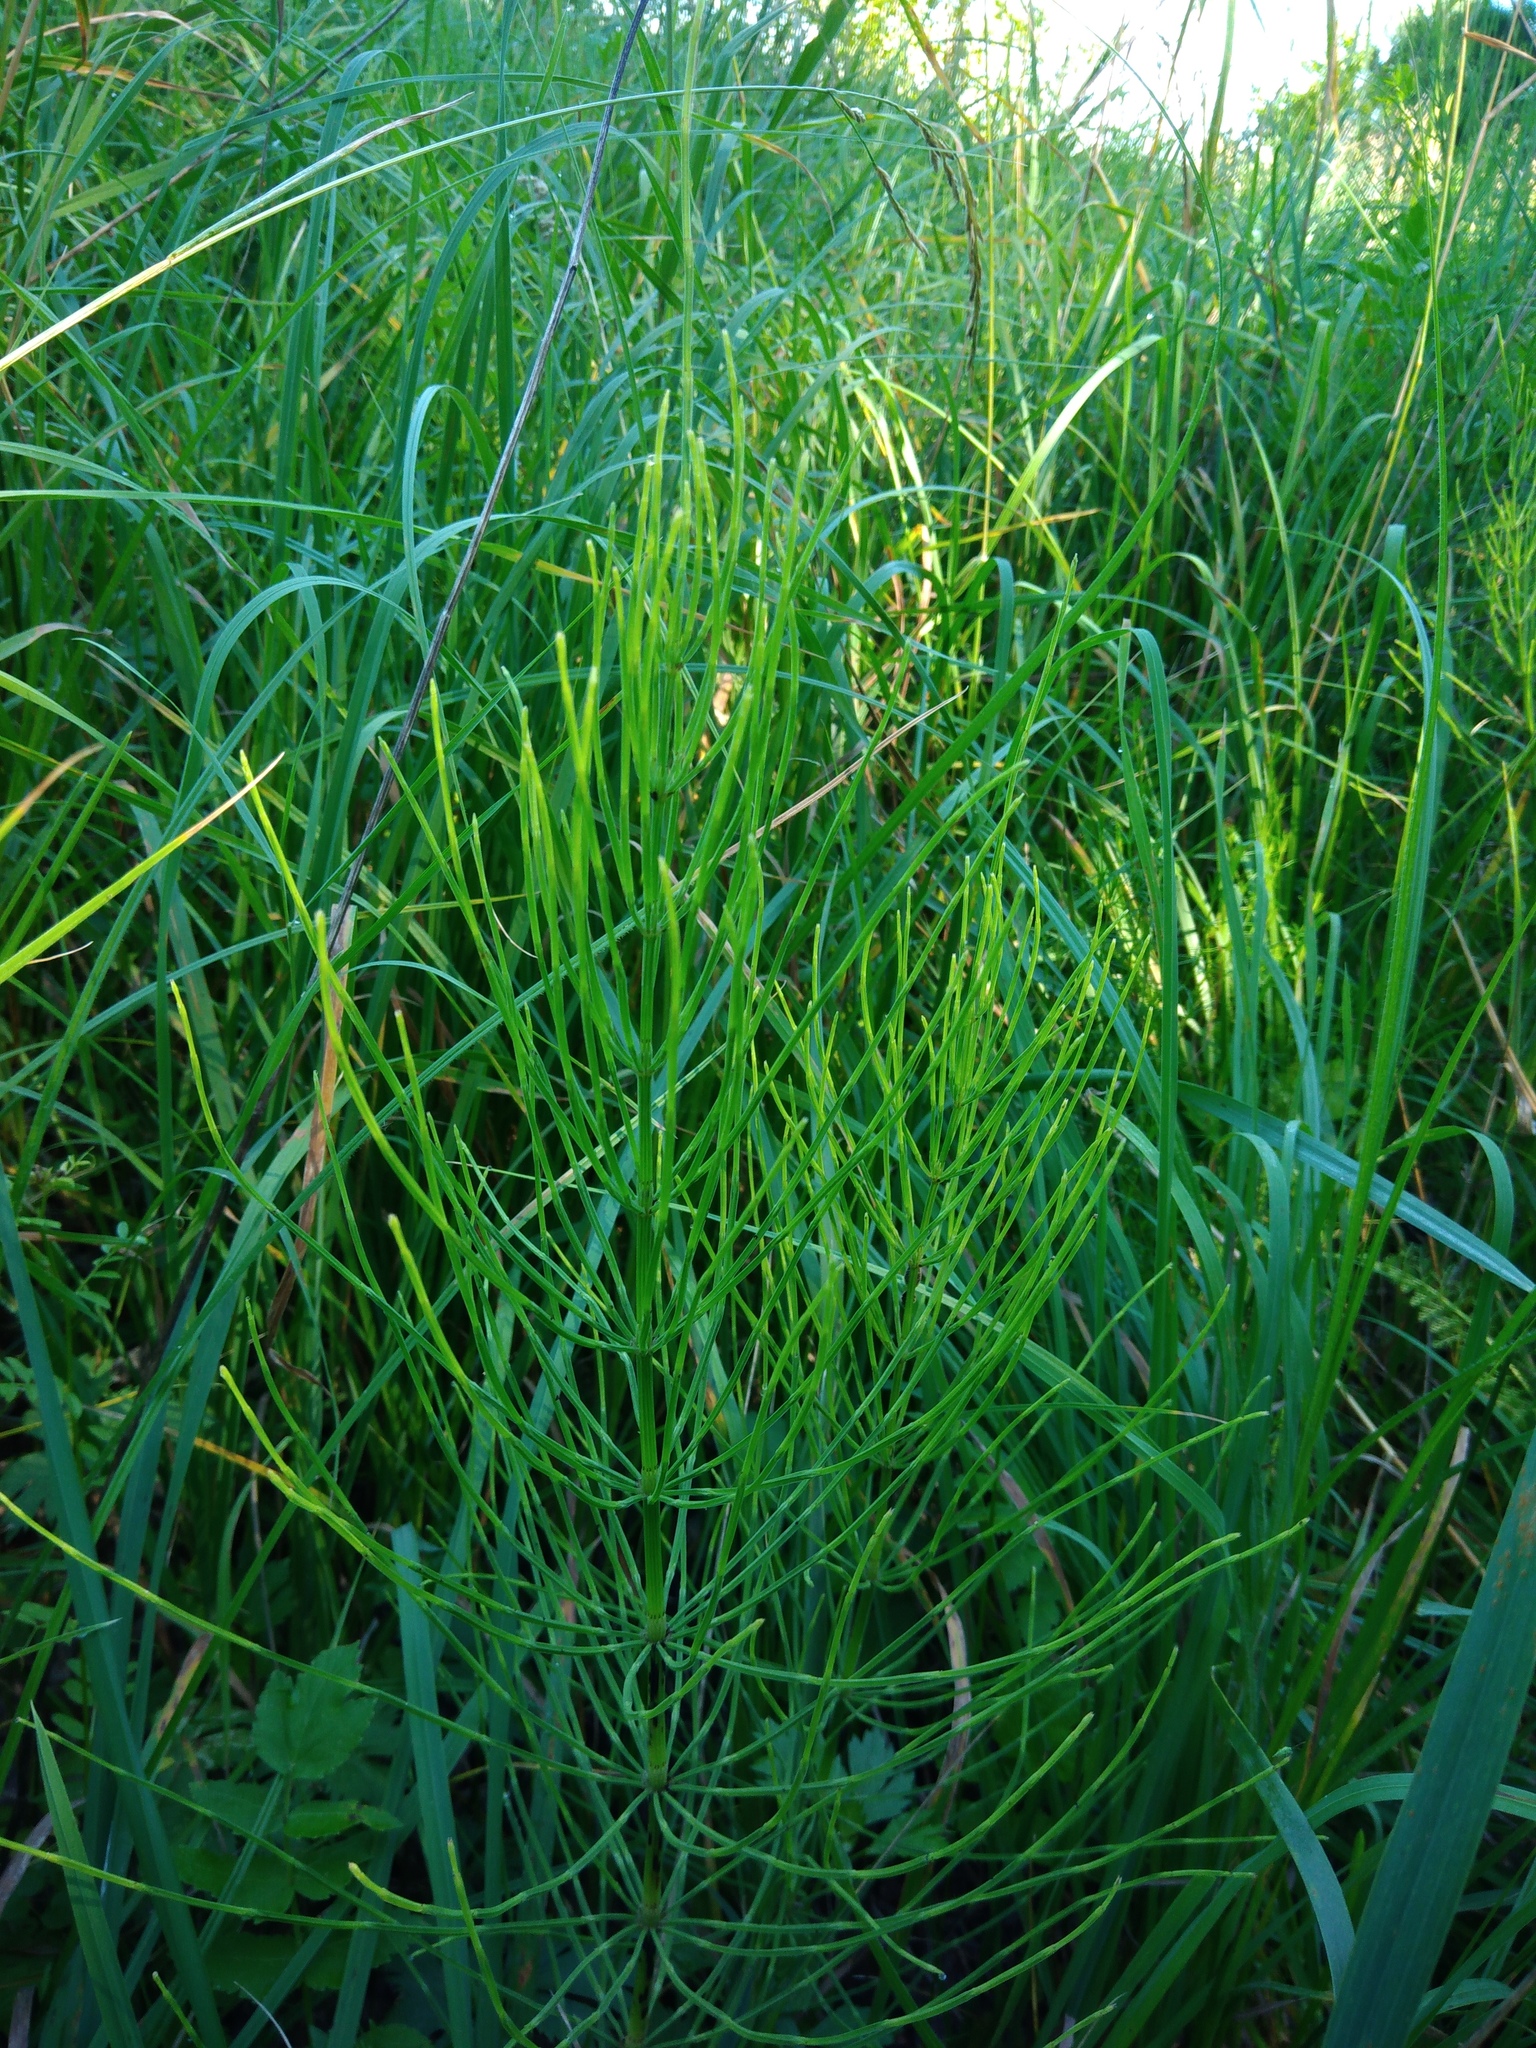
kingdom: Plantae
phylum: Tracheophyta
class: Polypodiopsida
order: Equisetales
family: Equisetaceae
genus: Equisetum
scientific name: Equisetum arvense
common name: Field horsetail
